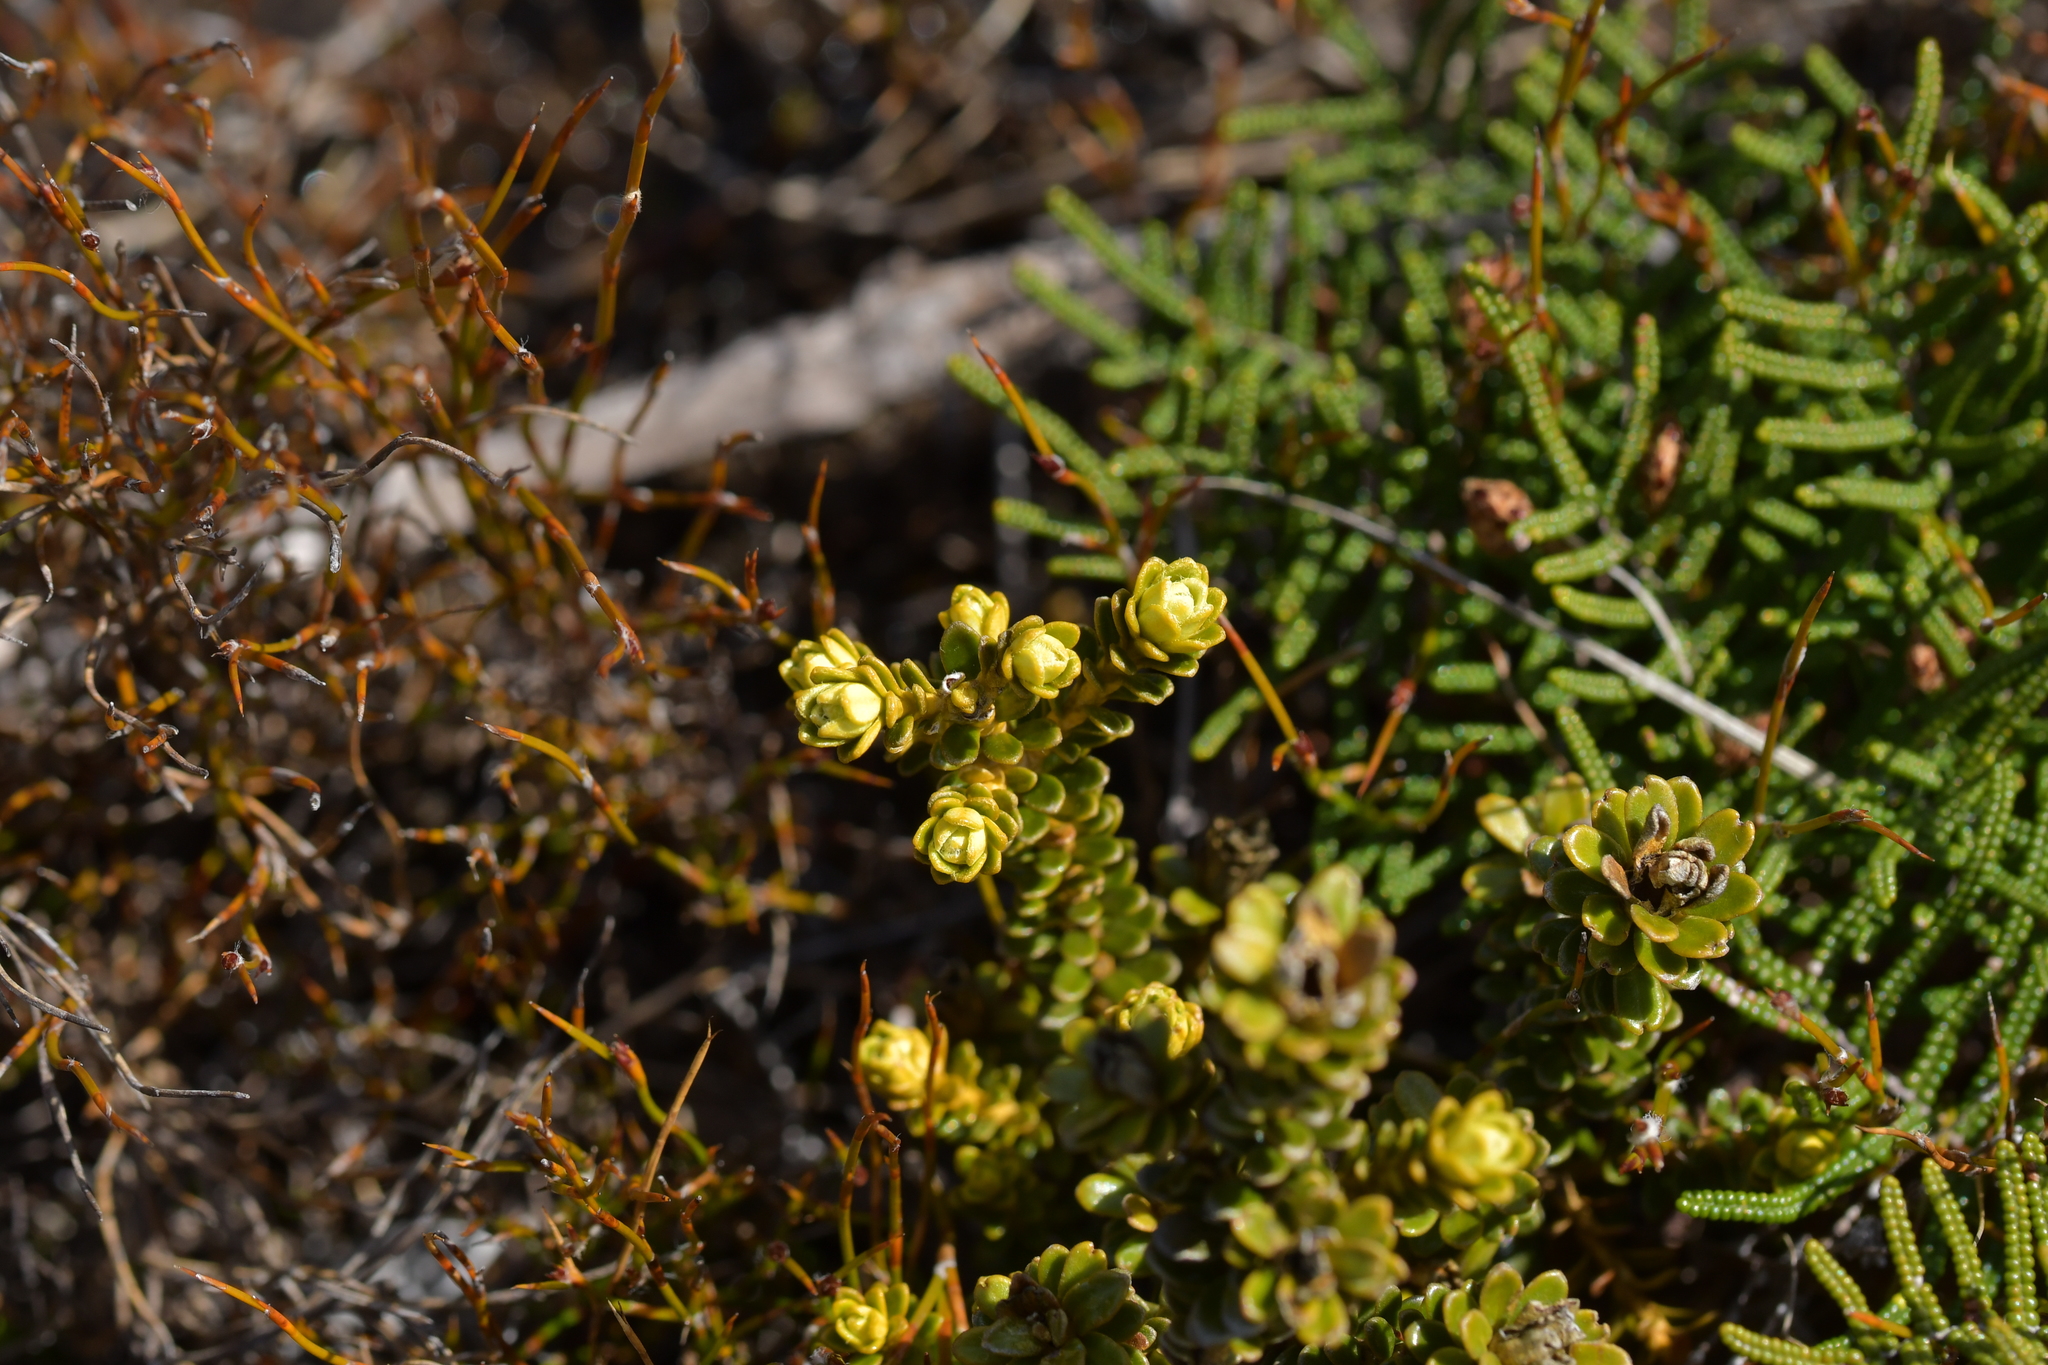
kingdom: Plantae
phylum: Tracheophyta
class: Magnoliopsida
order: Asterales
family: Asteraceae
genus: Olearia
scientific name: Olearia nummularifolia
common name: Sticky daisybush
